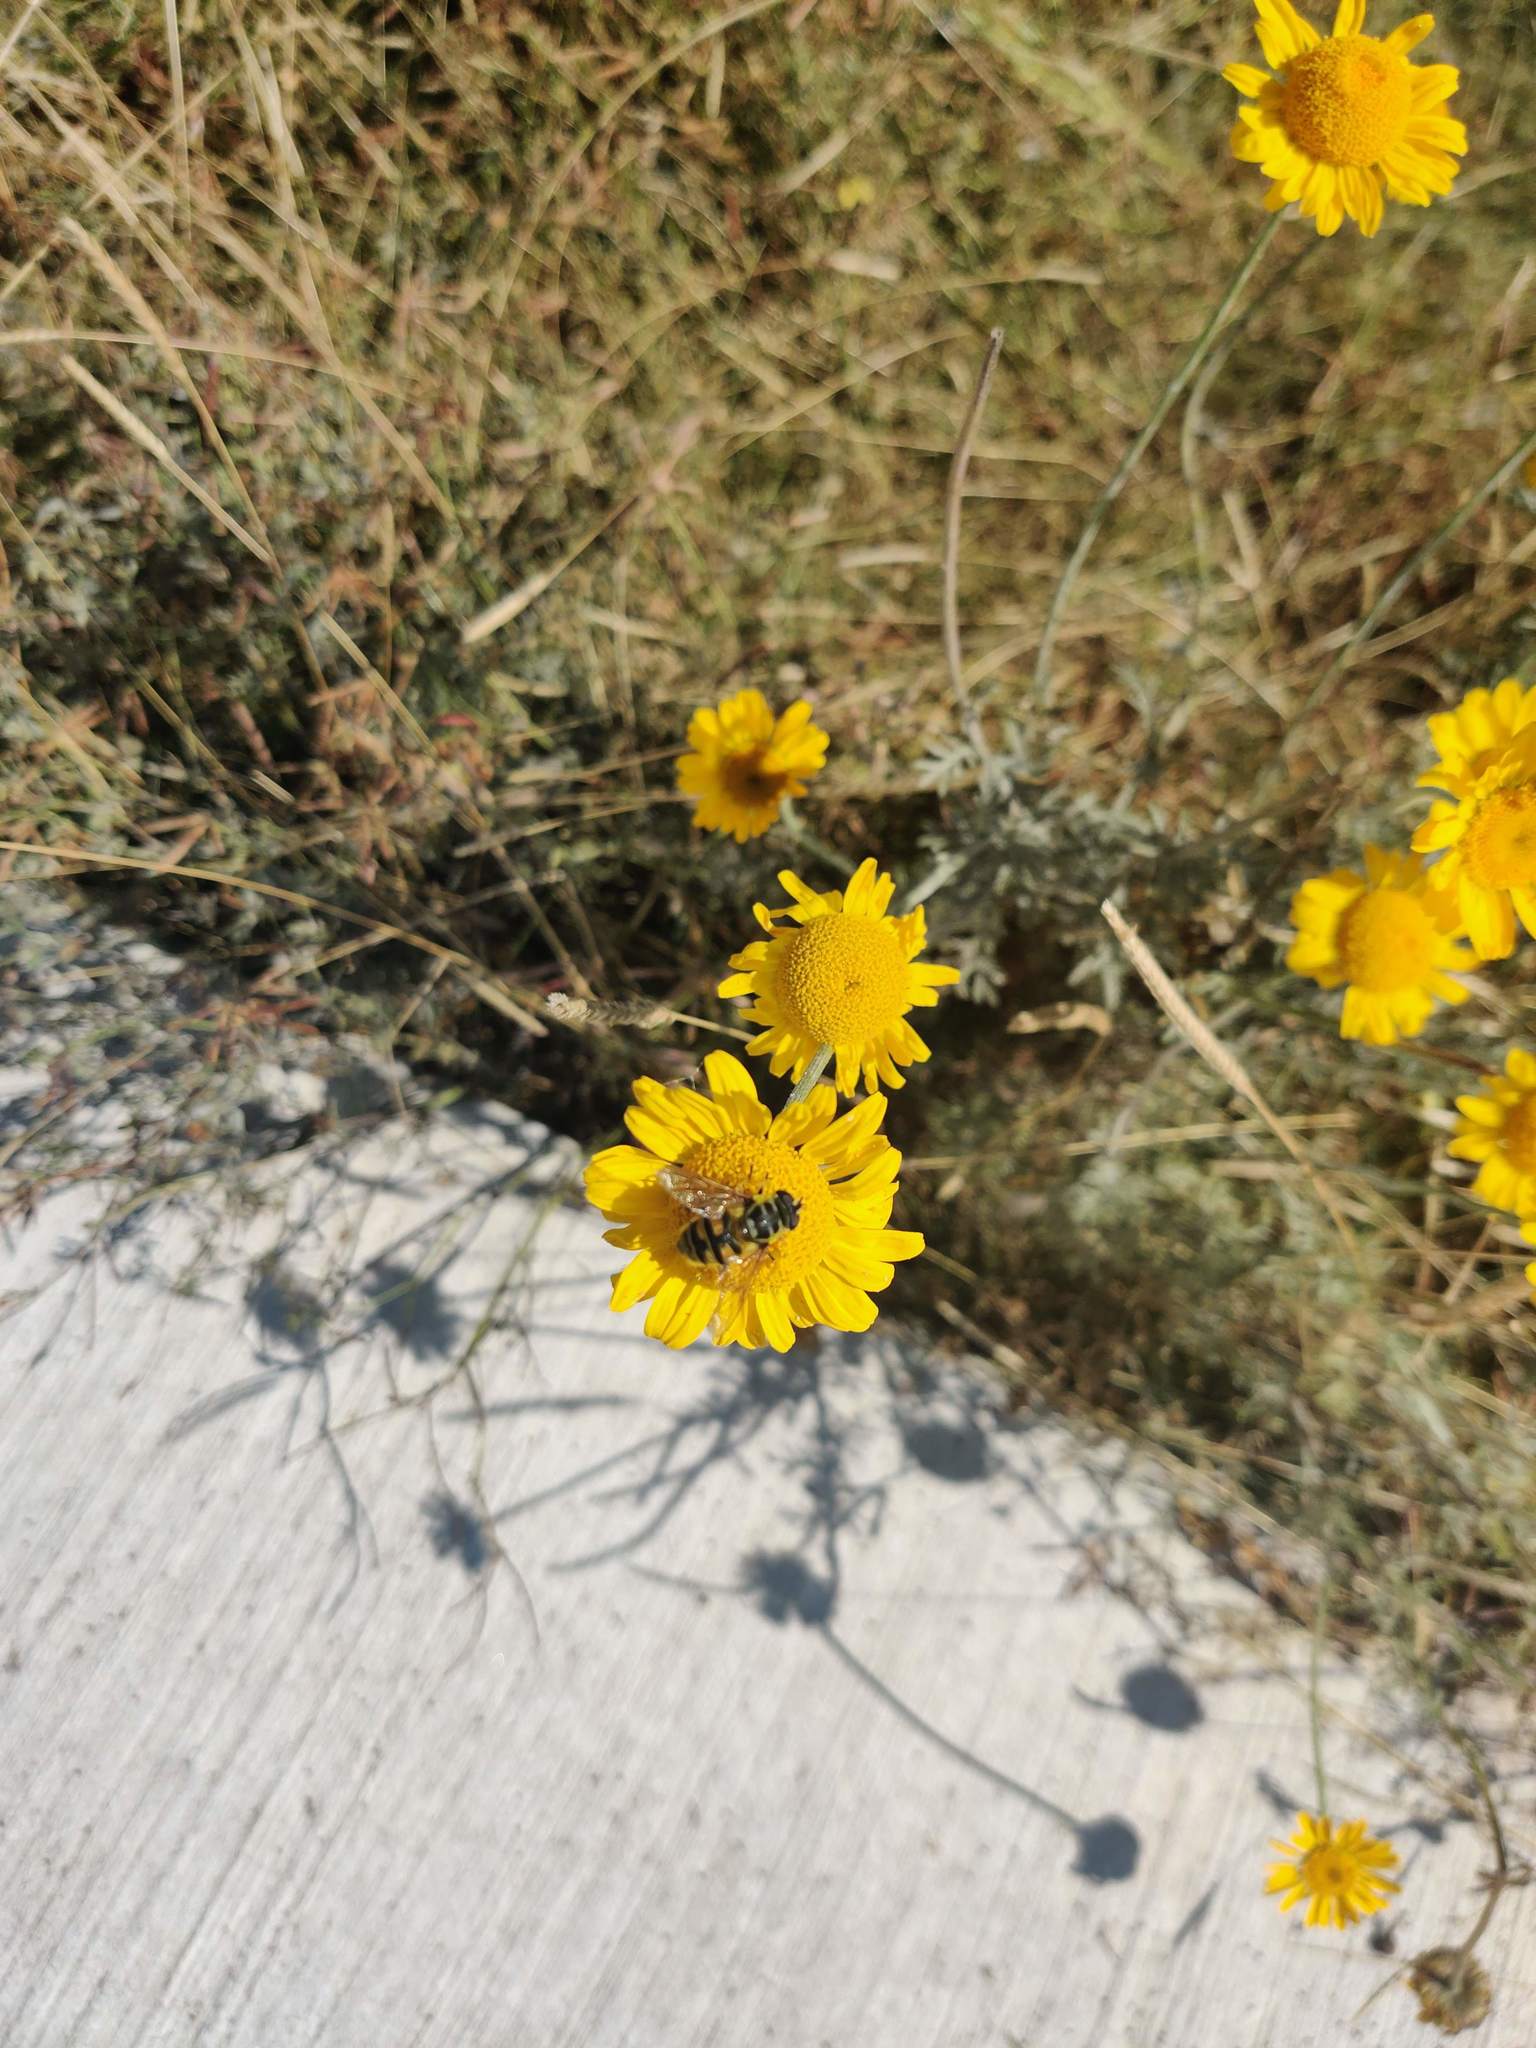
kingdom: Plantae
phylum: Tracheophyta
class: Magnoliopsida
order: Asterales
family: Asteraceae
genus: Cota
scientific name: Cota tinctoria
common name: Golden chamomile
